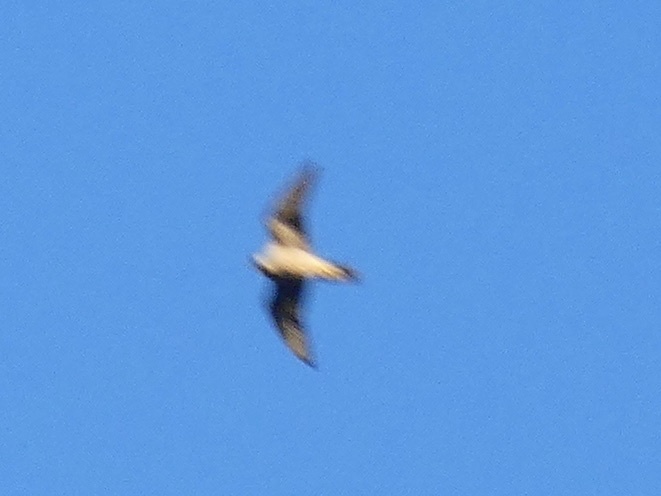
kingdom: Animalia
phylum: Chordata
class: Aves
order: Falconiformes
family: Falconidae
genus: Falco
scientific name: Falco peregrinus
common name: Peregrine falcon
